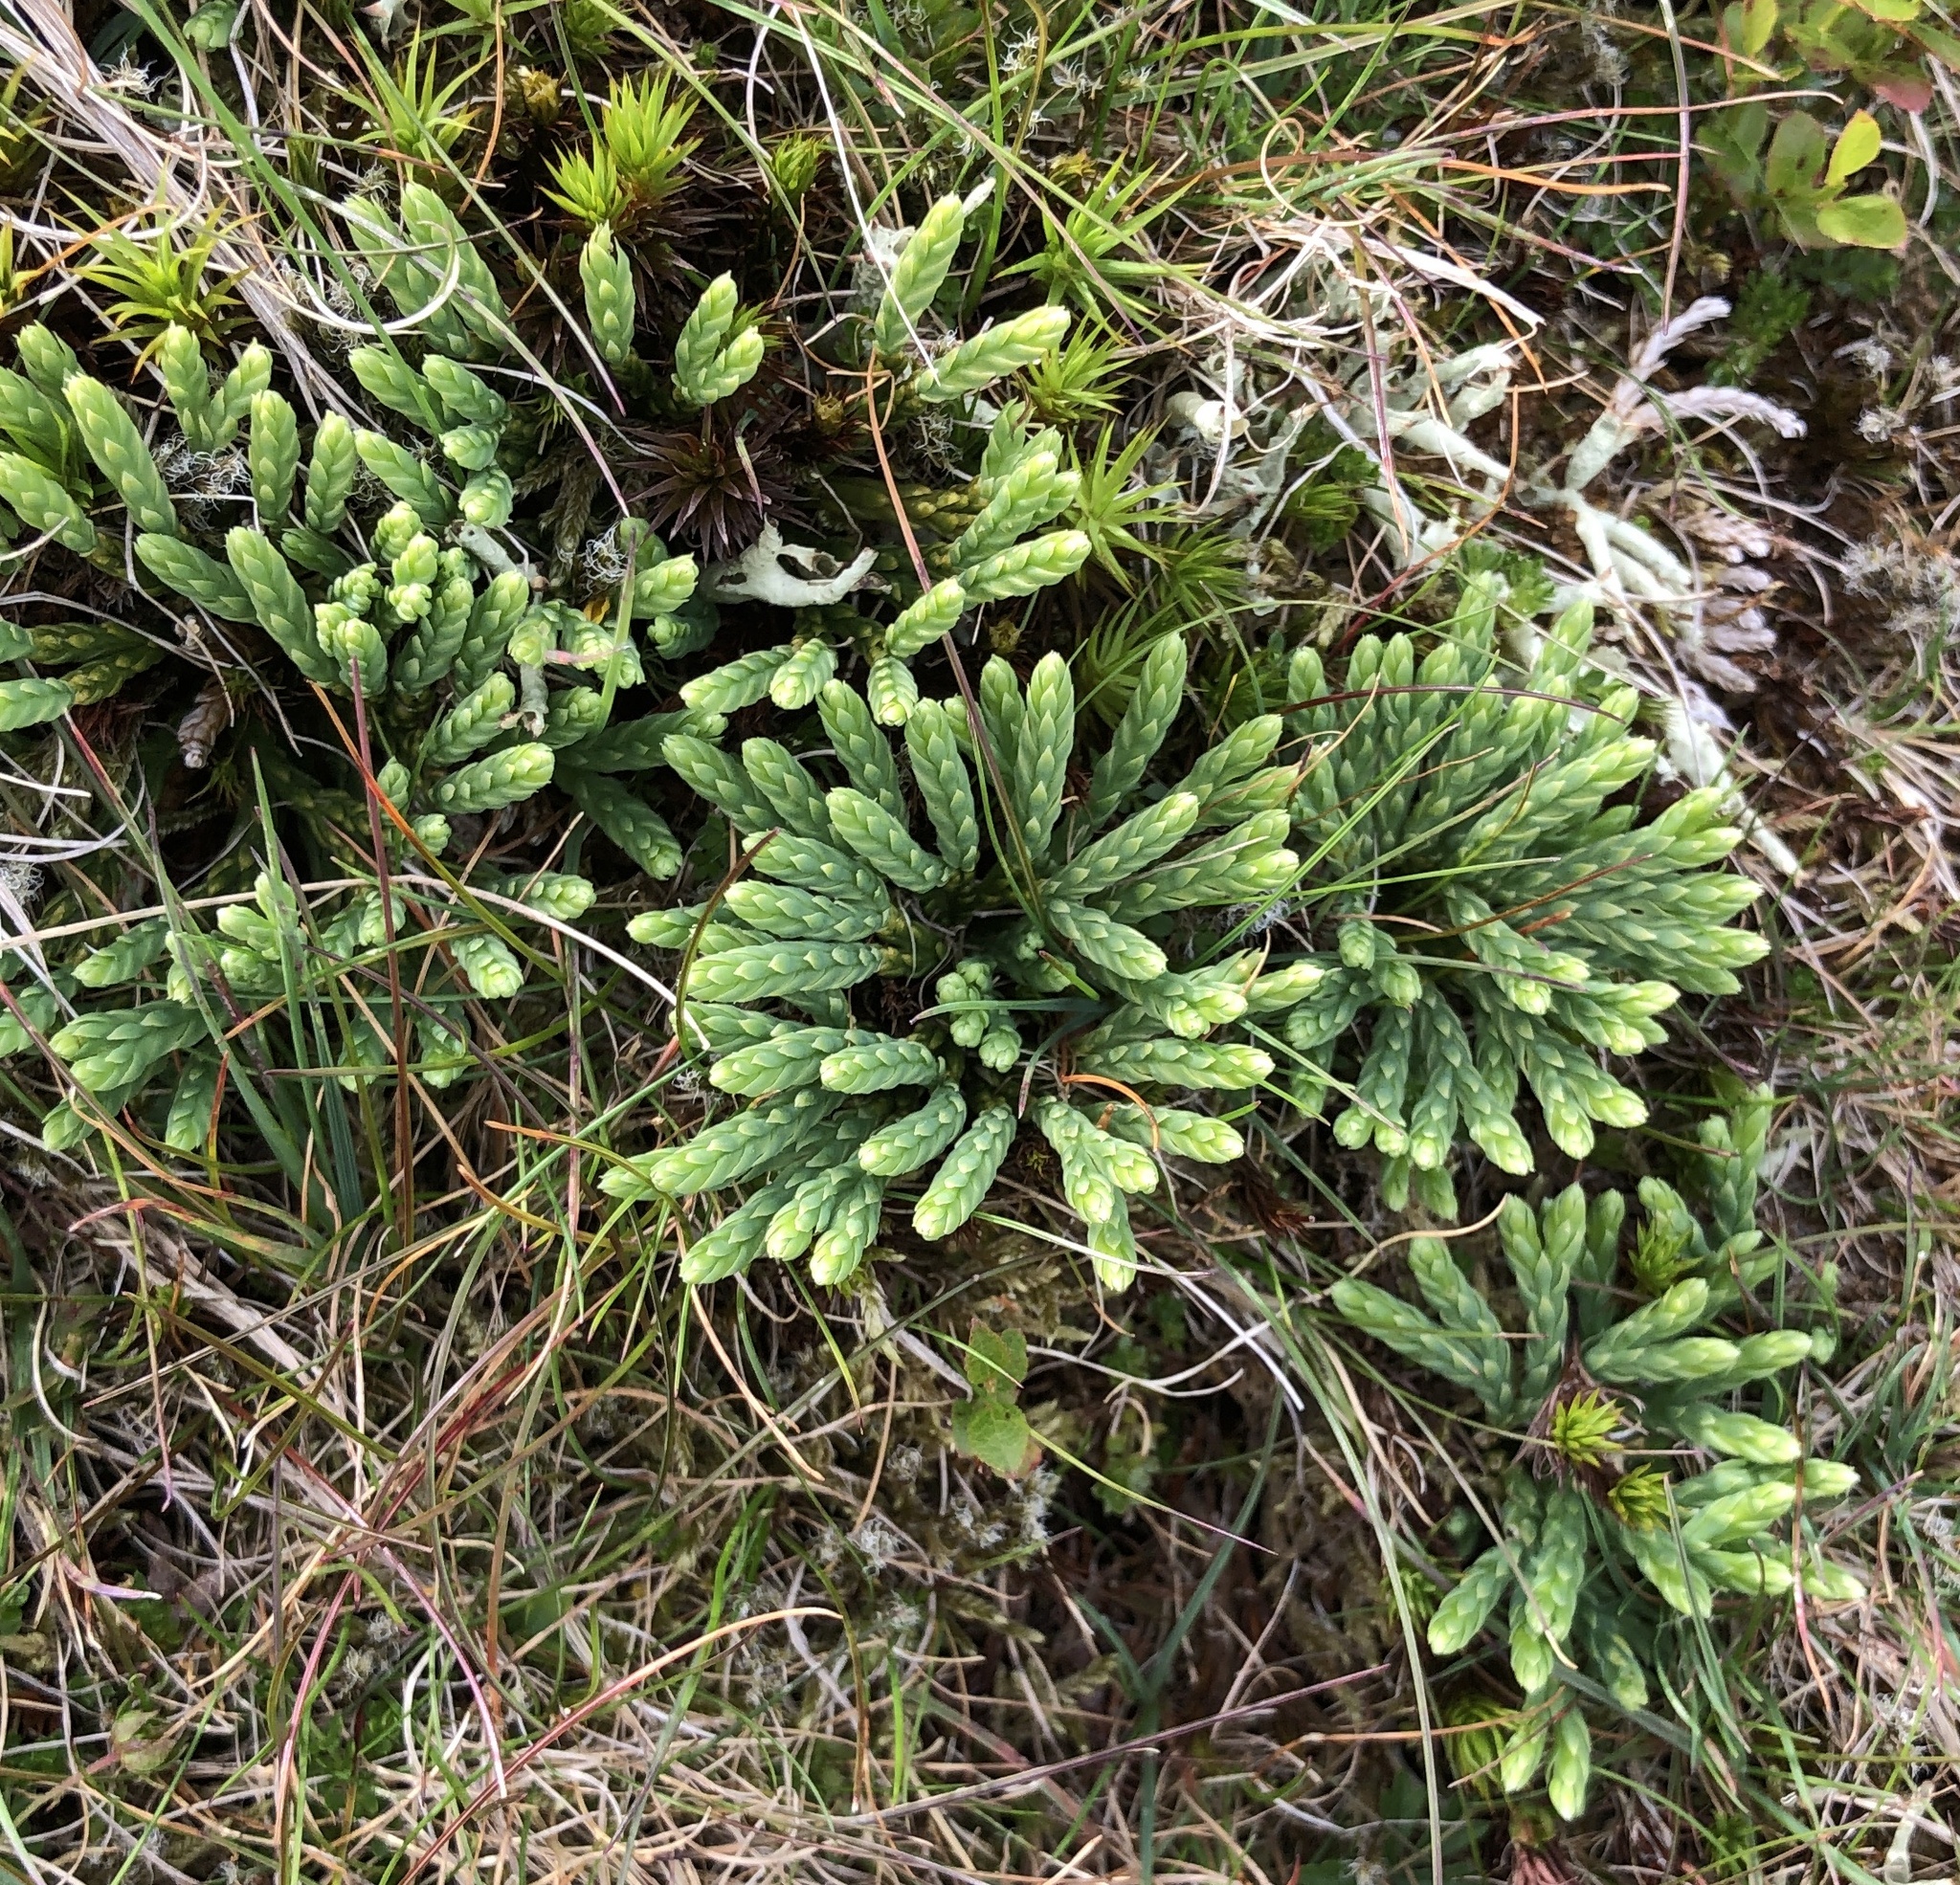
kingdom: Plantae
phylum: Tracheophyta
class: Lycopodiopsida
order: Lycopodiales
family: Lycopodiaceae
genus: Diphasiastrum
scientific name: Diphasiastrum alpinum
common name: Alpine clubmoss
